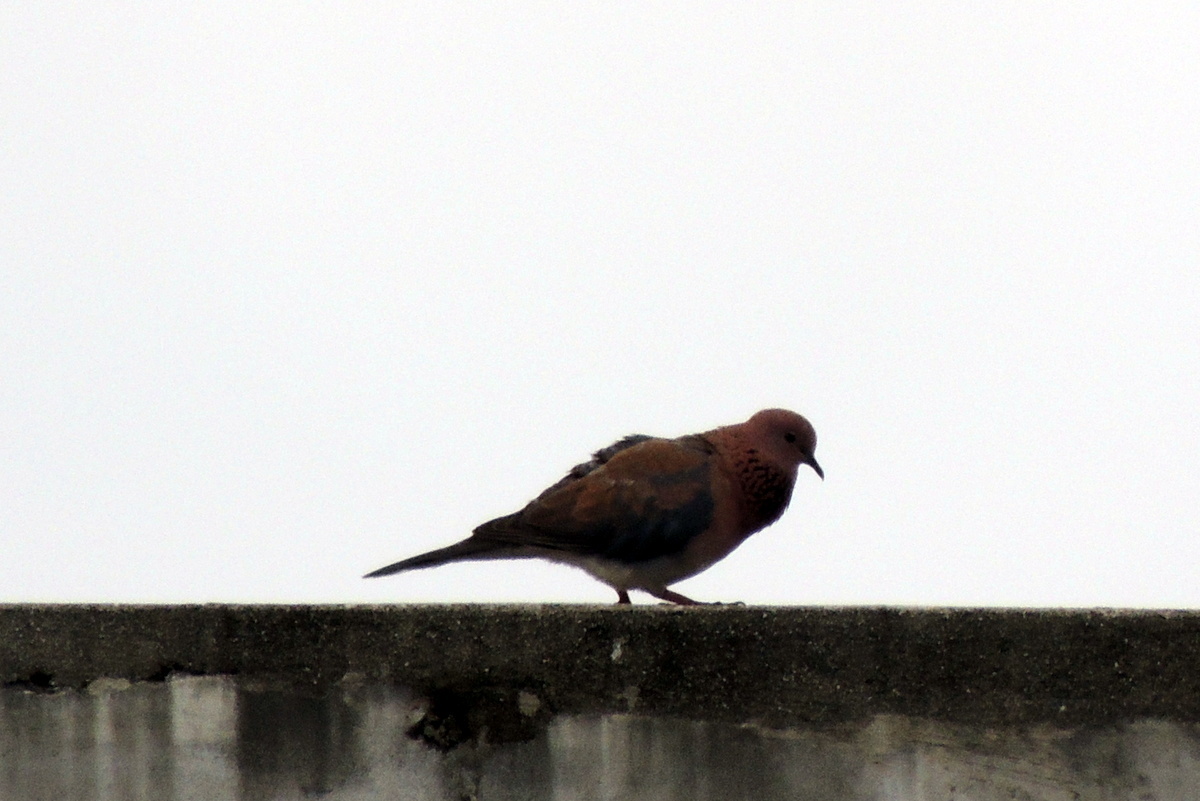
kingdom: Animalia
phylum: Chordata
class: Aves
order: Columbiformes
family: Columbidae
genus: Spilopelia
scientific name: Spilopelia senegalensis
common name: Laughing dove
